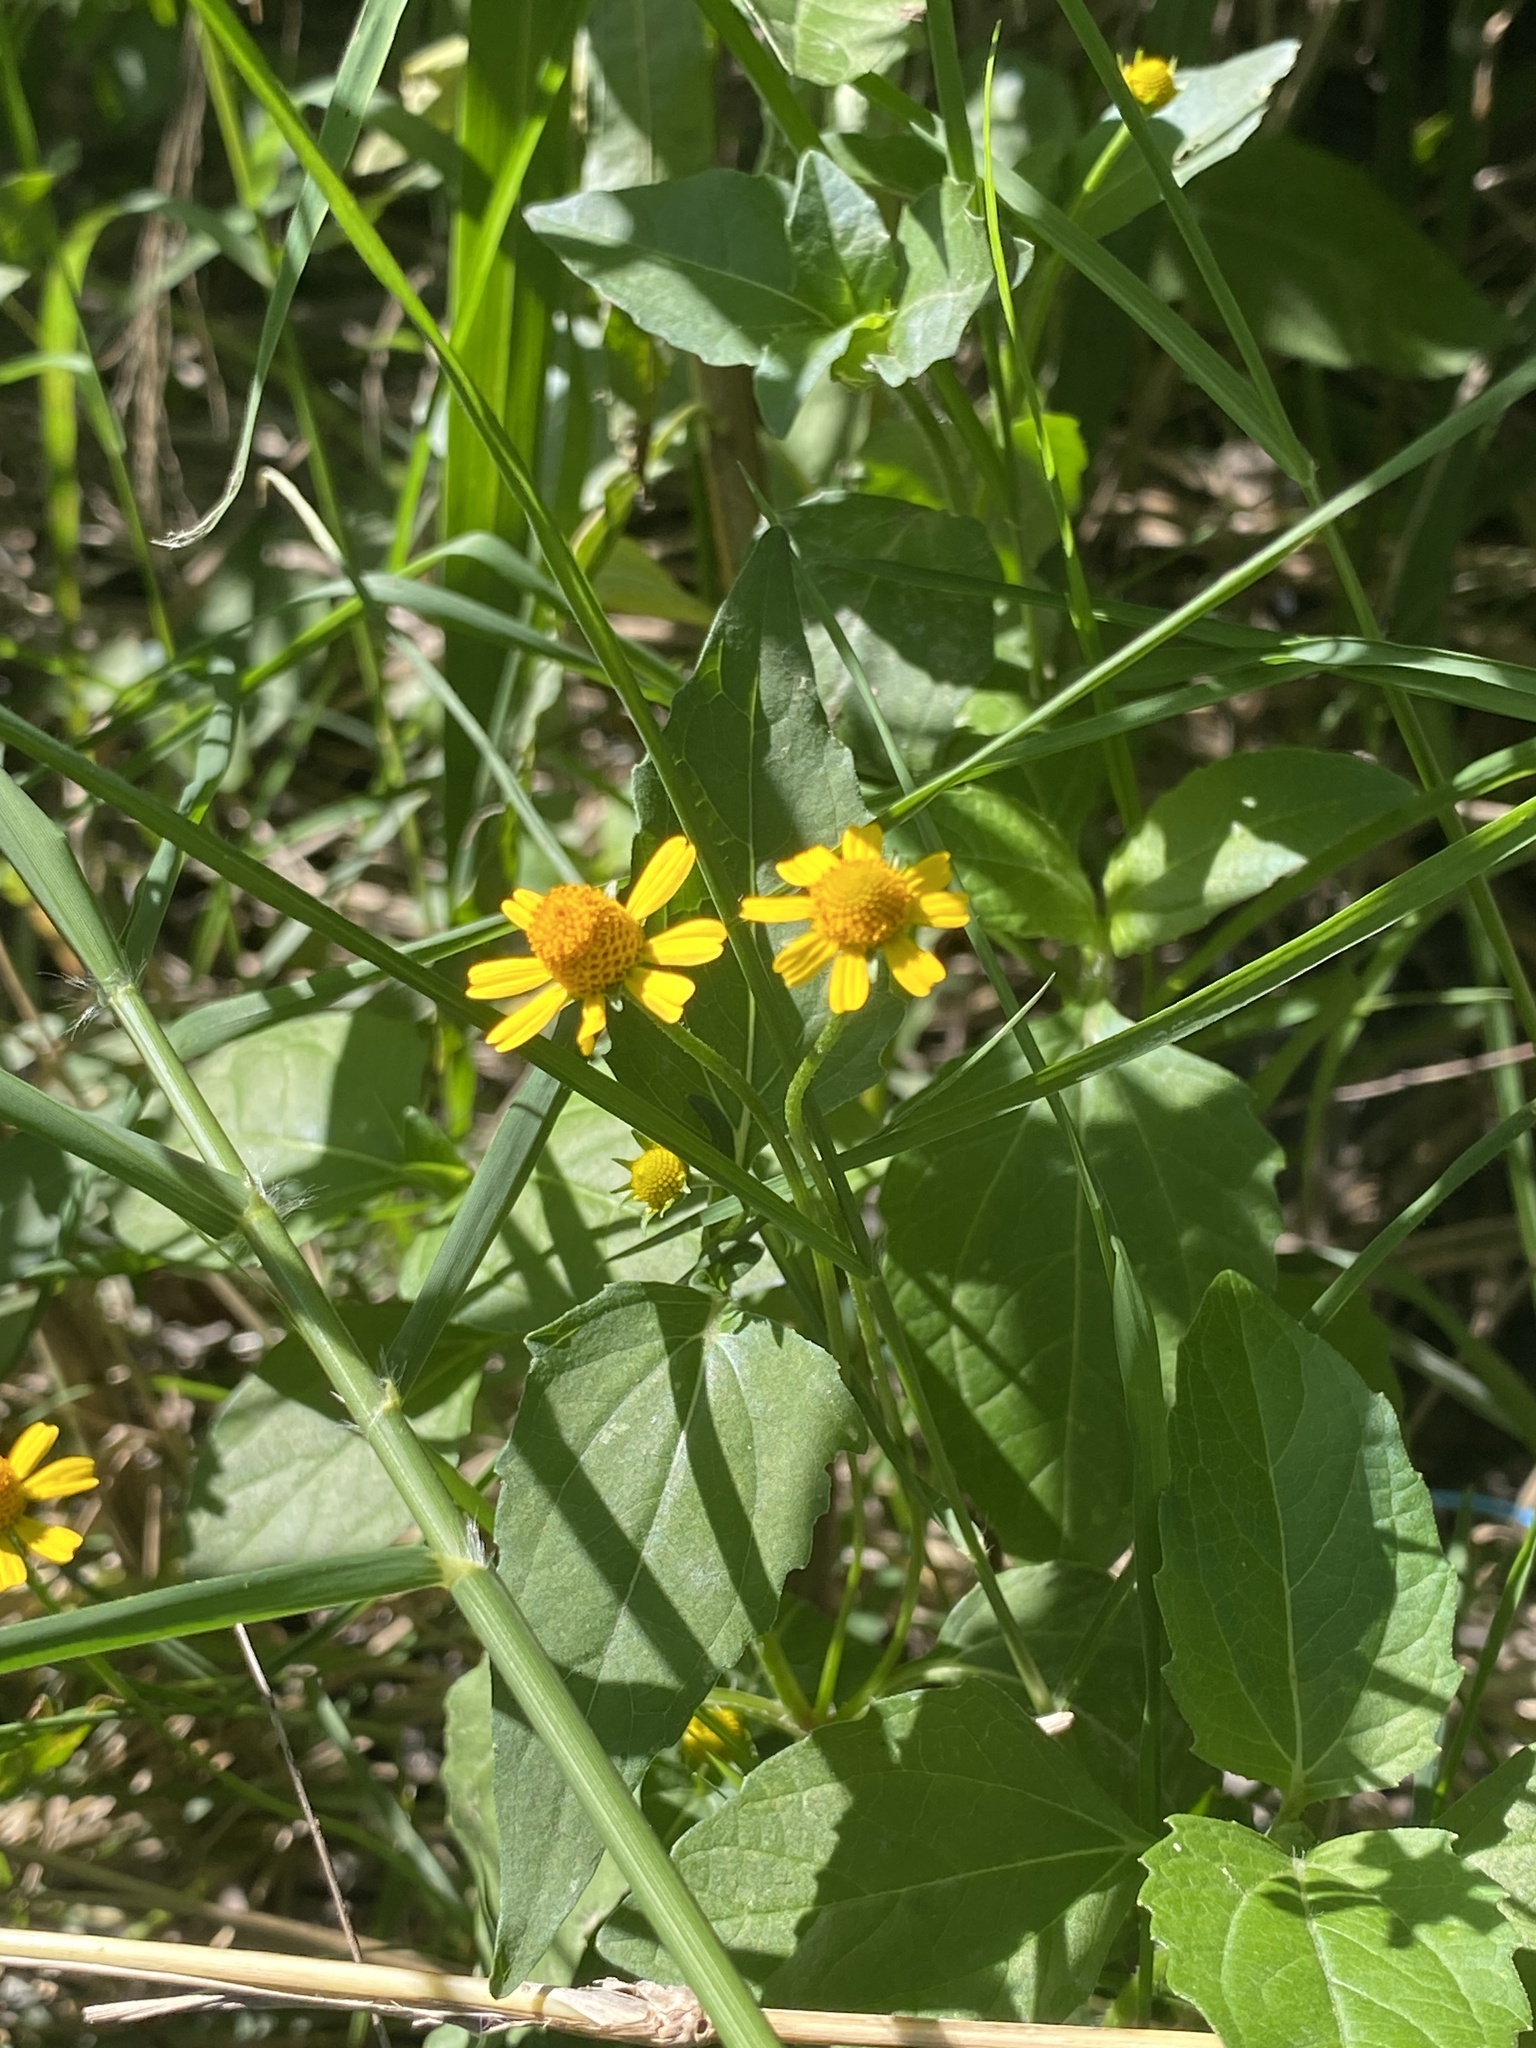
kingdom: Plantae
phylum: Tracheophyta
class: Magnoliopsida
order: Asterales
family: Asteraceae
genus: Acmella
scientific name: Acmella repens
